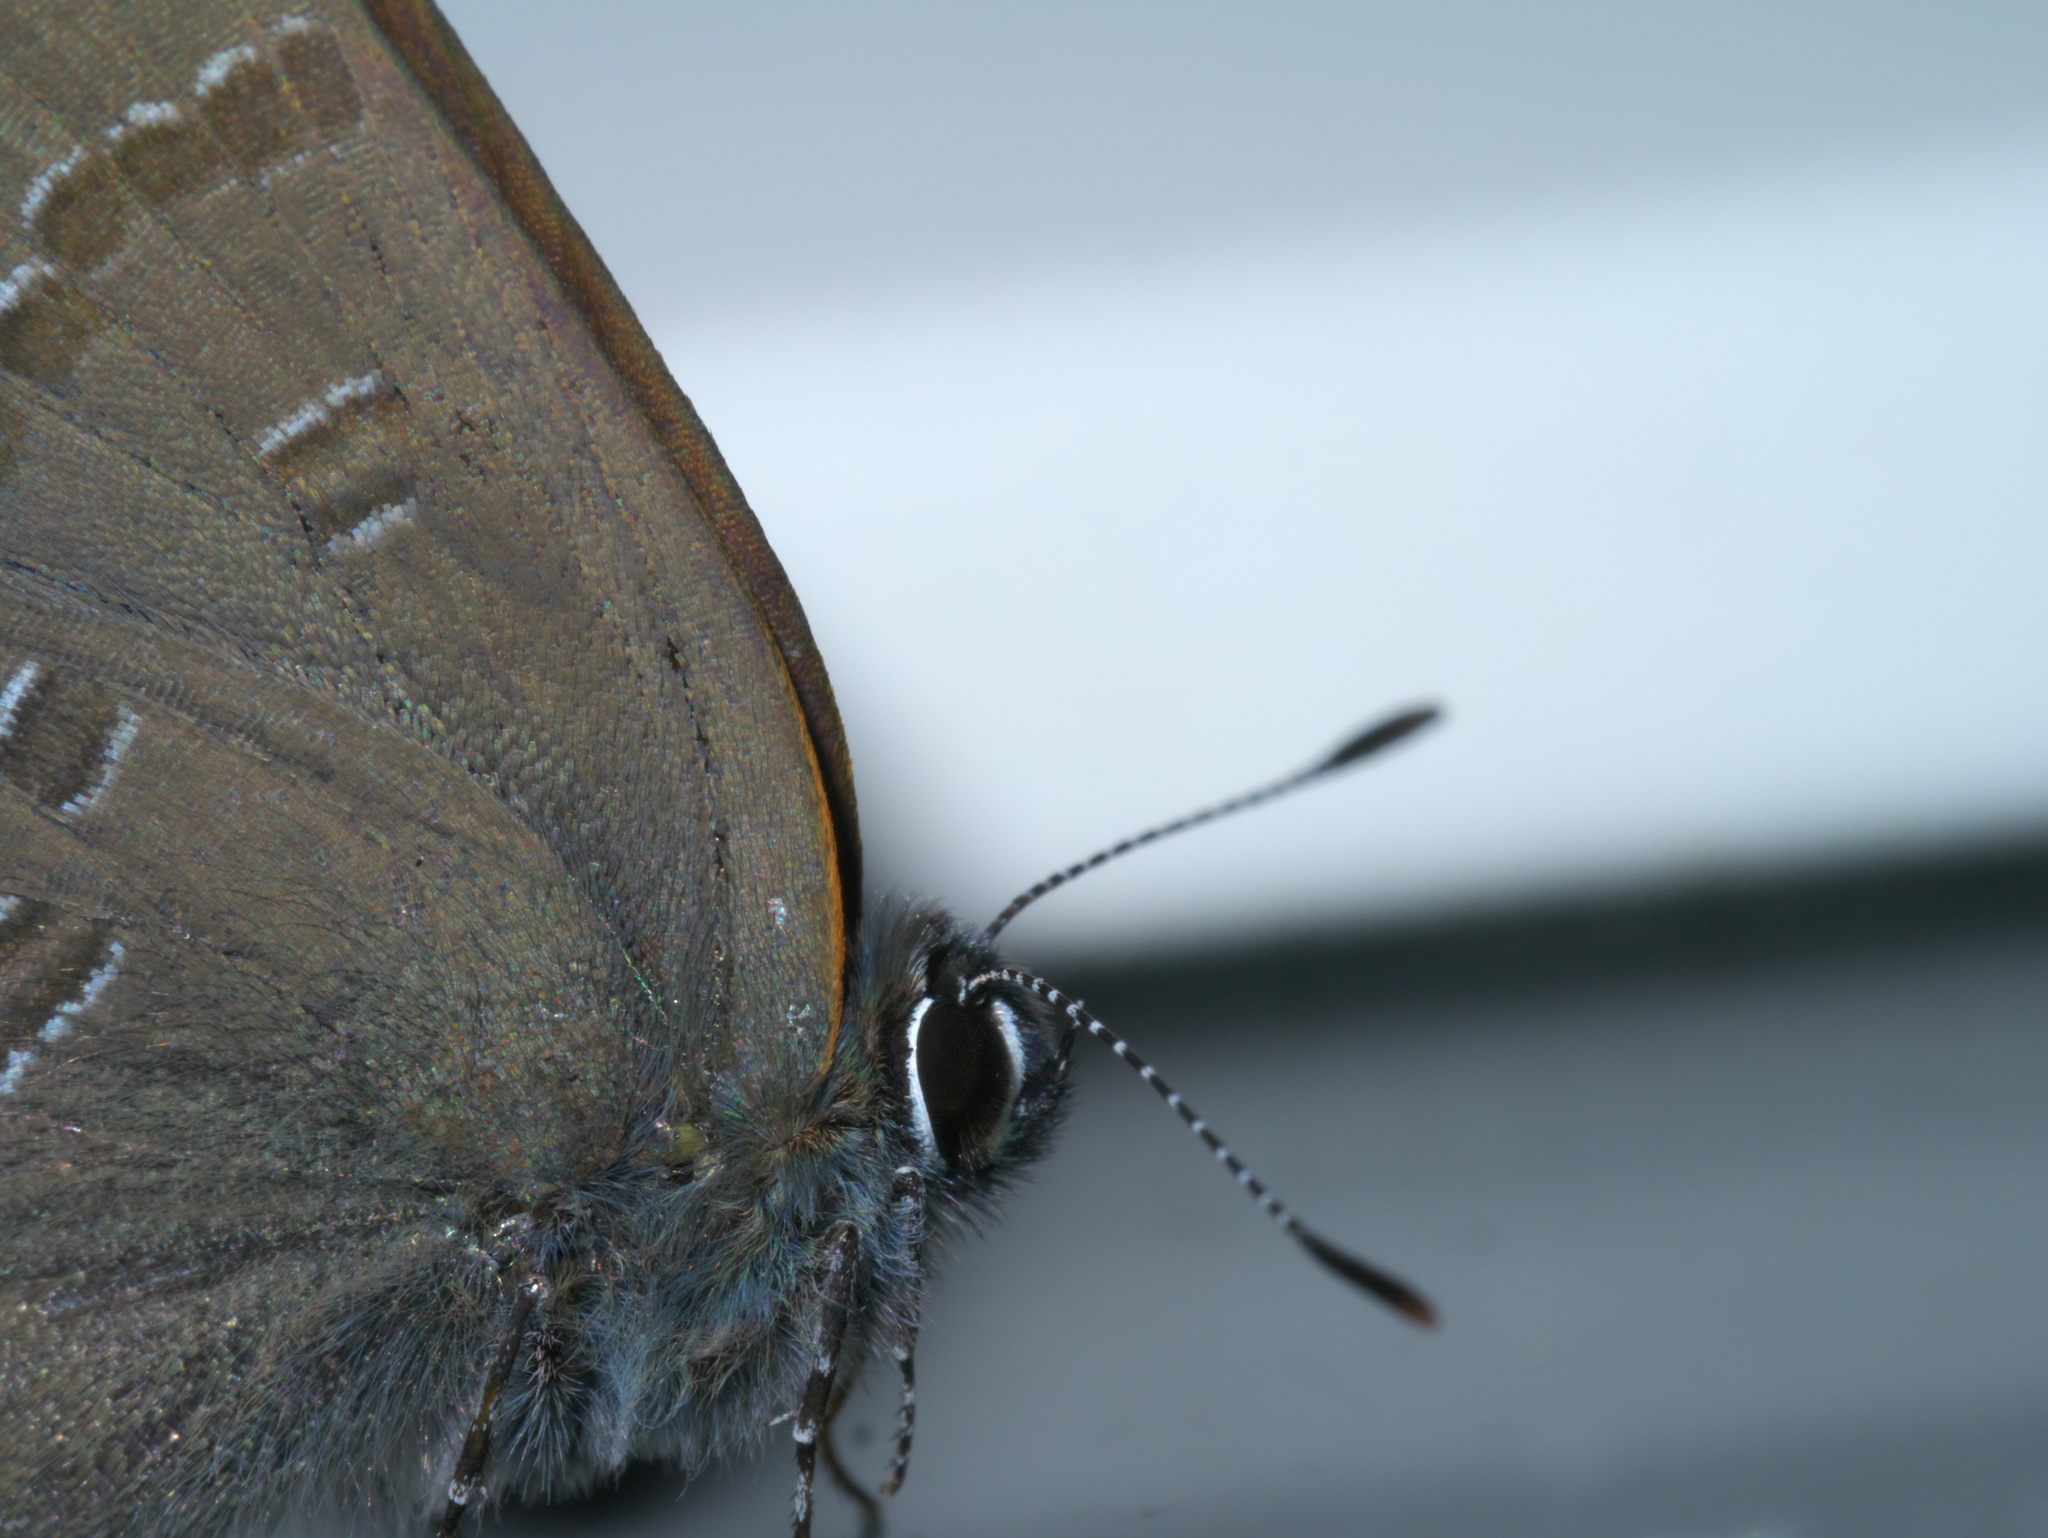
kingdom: Animalia
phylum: Arthropoda
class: Insecta
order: Lepidoptera
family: Lycaenidae
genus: Satyrium
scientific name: Satyrium calanus
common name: Banded hairstreak
